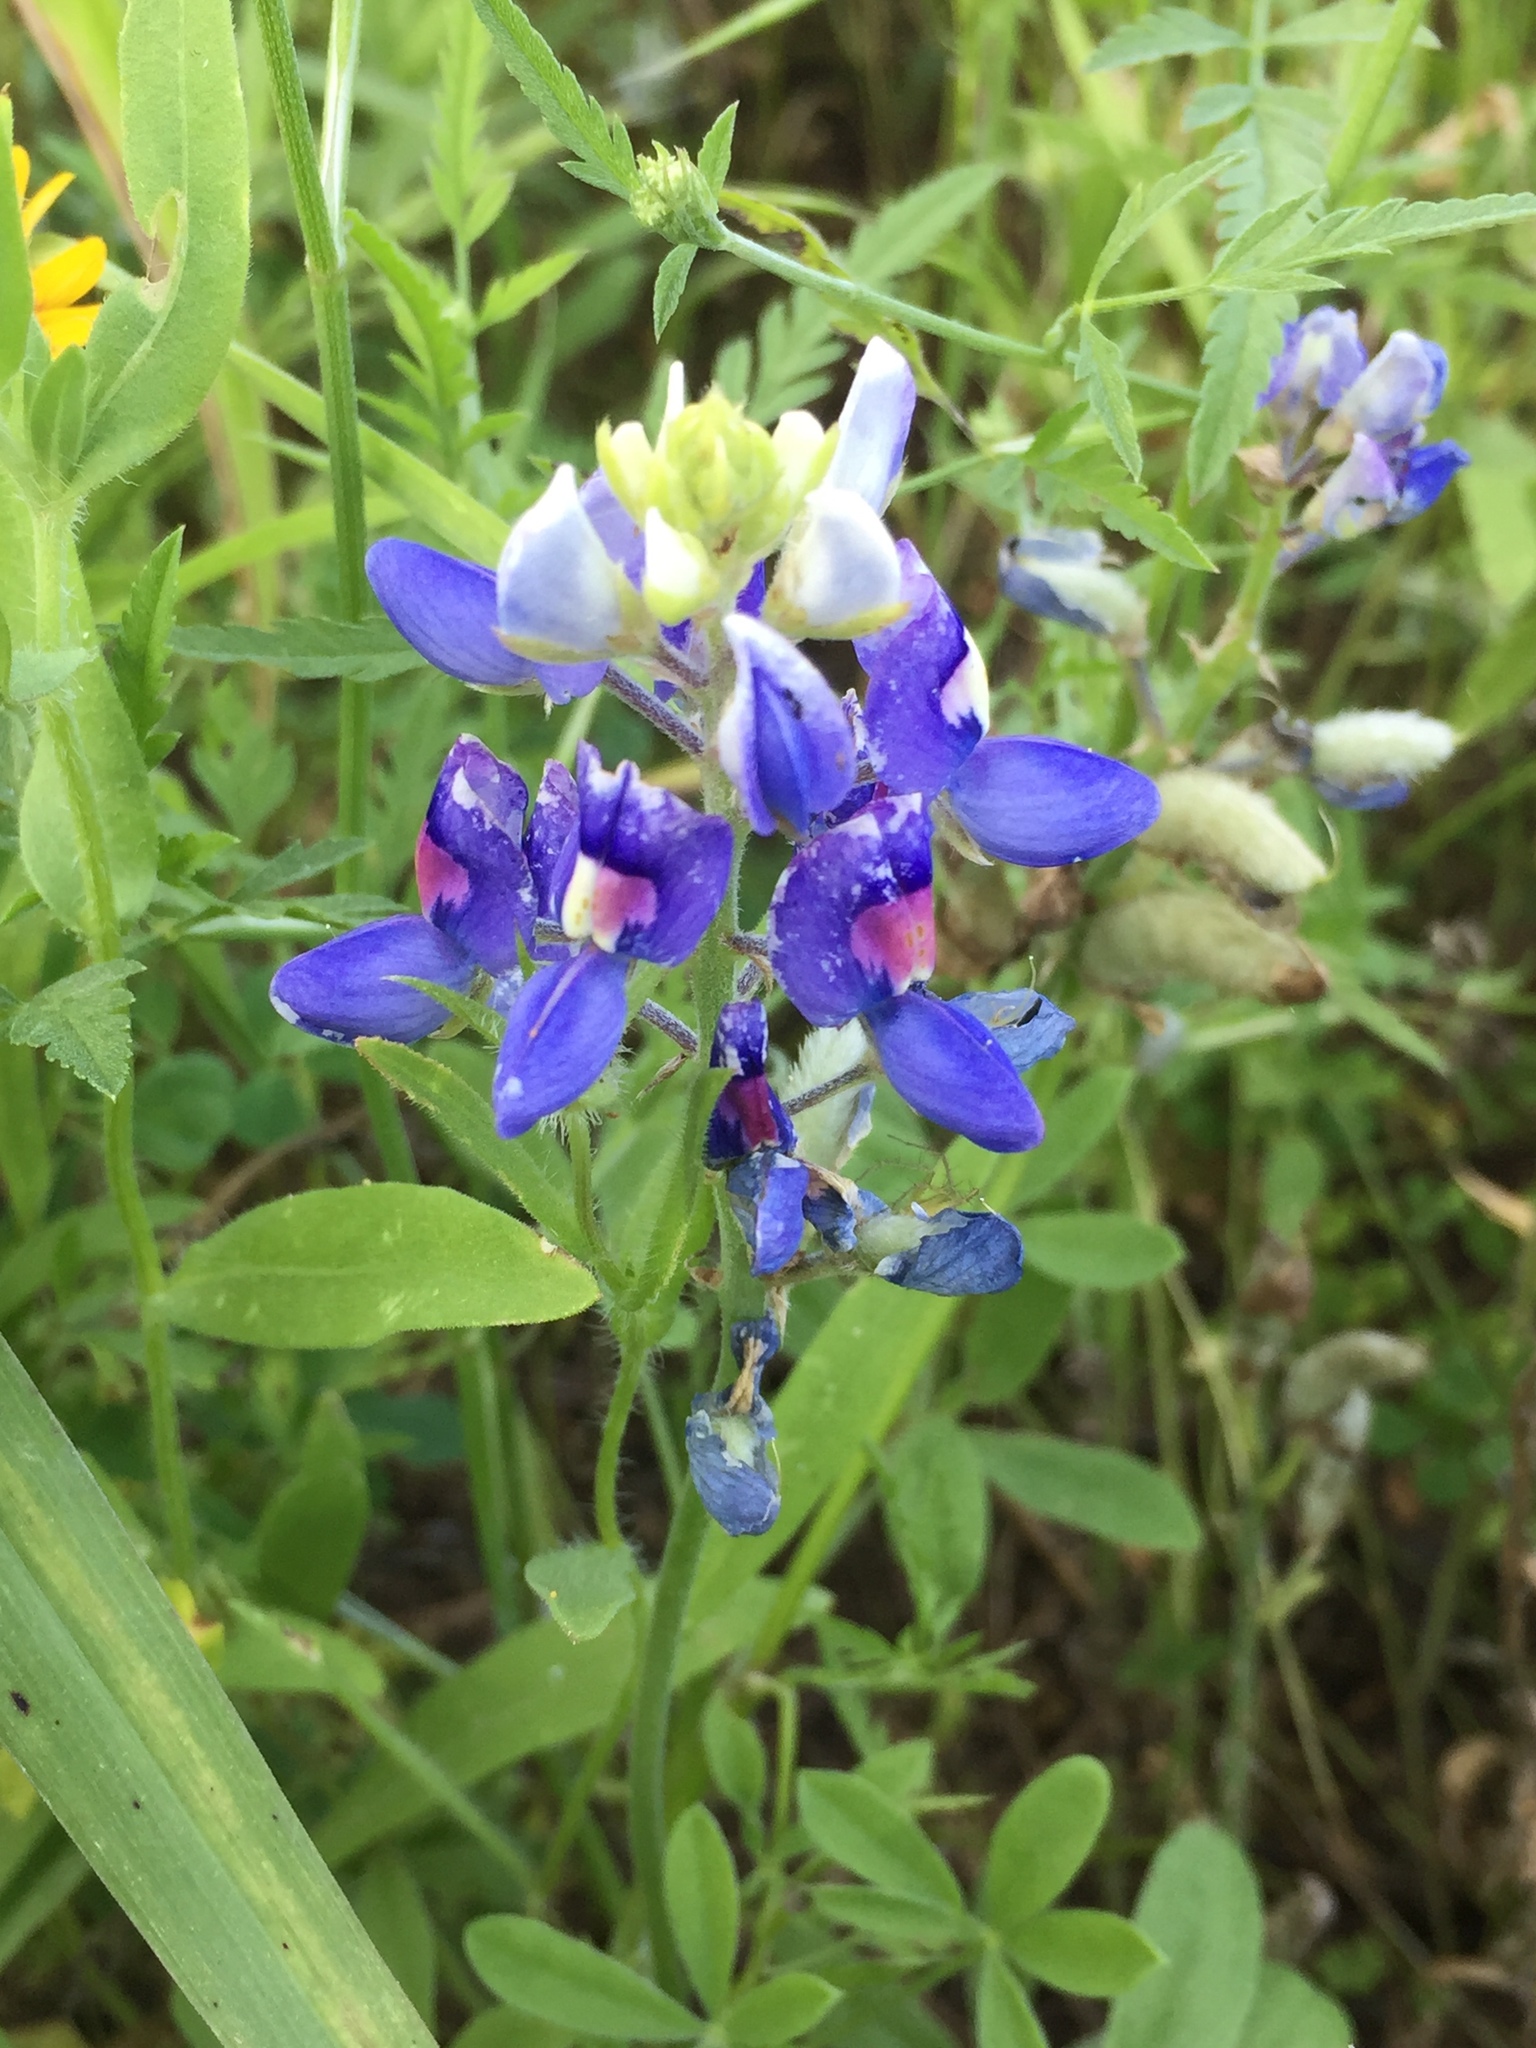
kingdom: Plantae
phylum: Tracheophyta
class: Magnoliopsida
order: Fabales
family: Fabaceae
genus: Lupinus
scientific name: Lupinus texensis
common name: Texas bluebonnet
